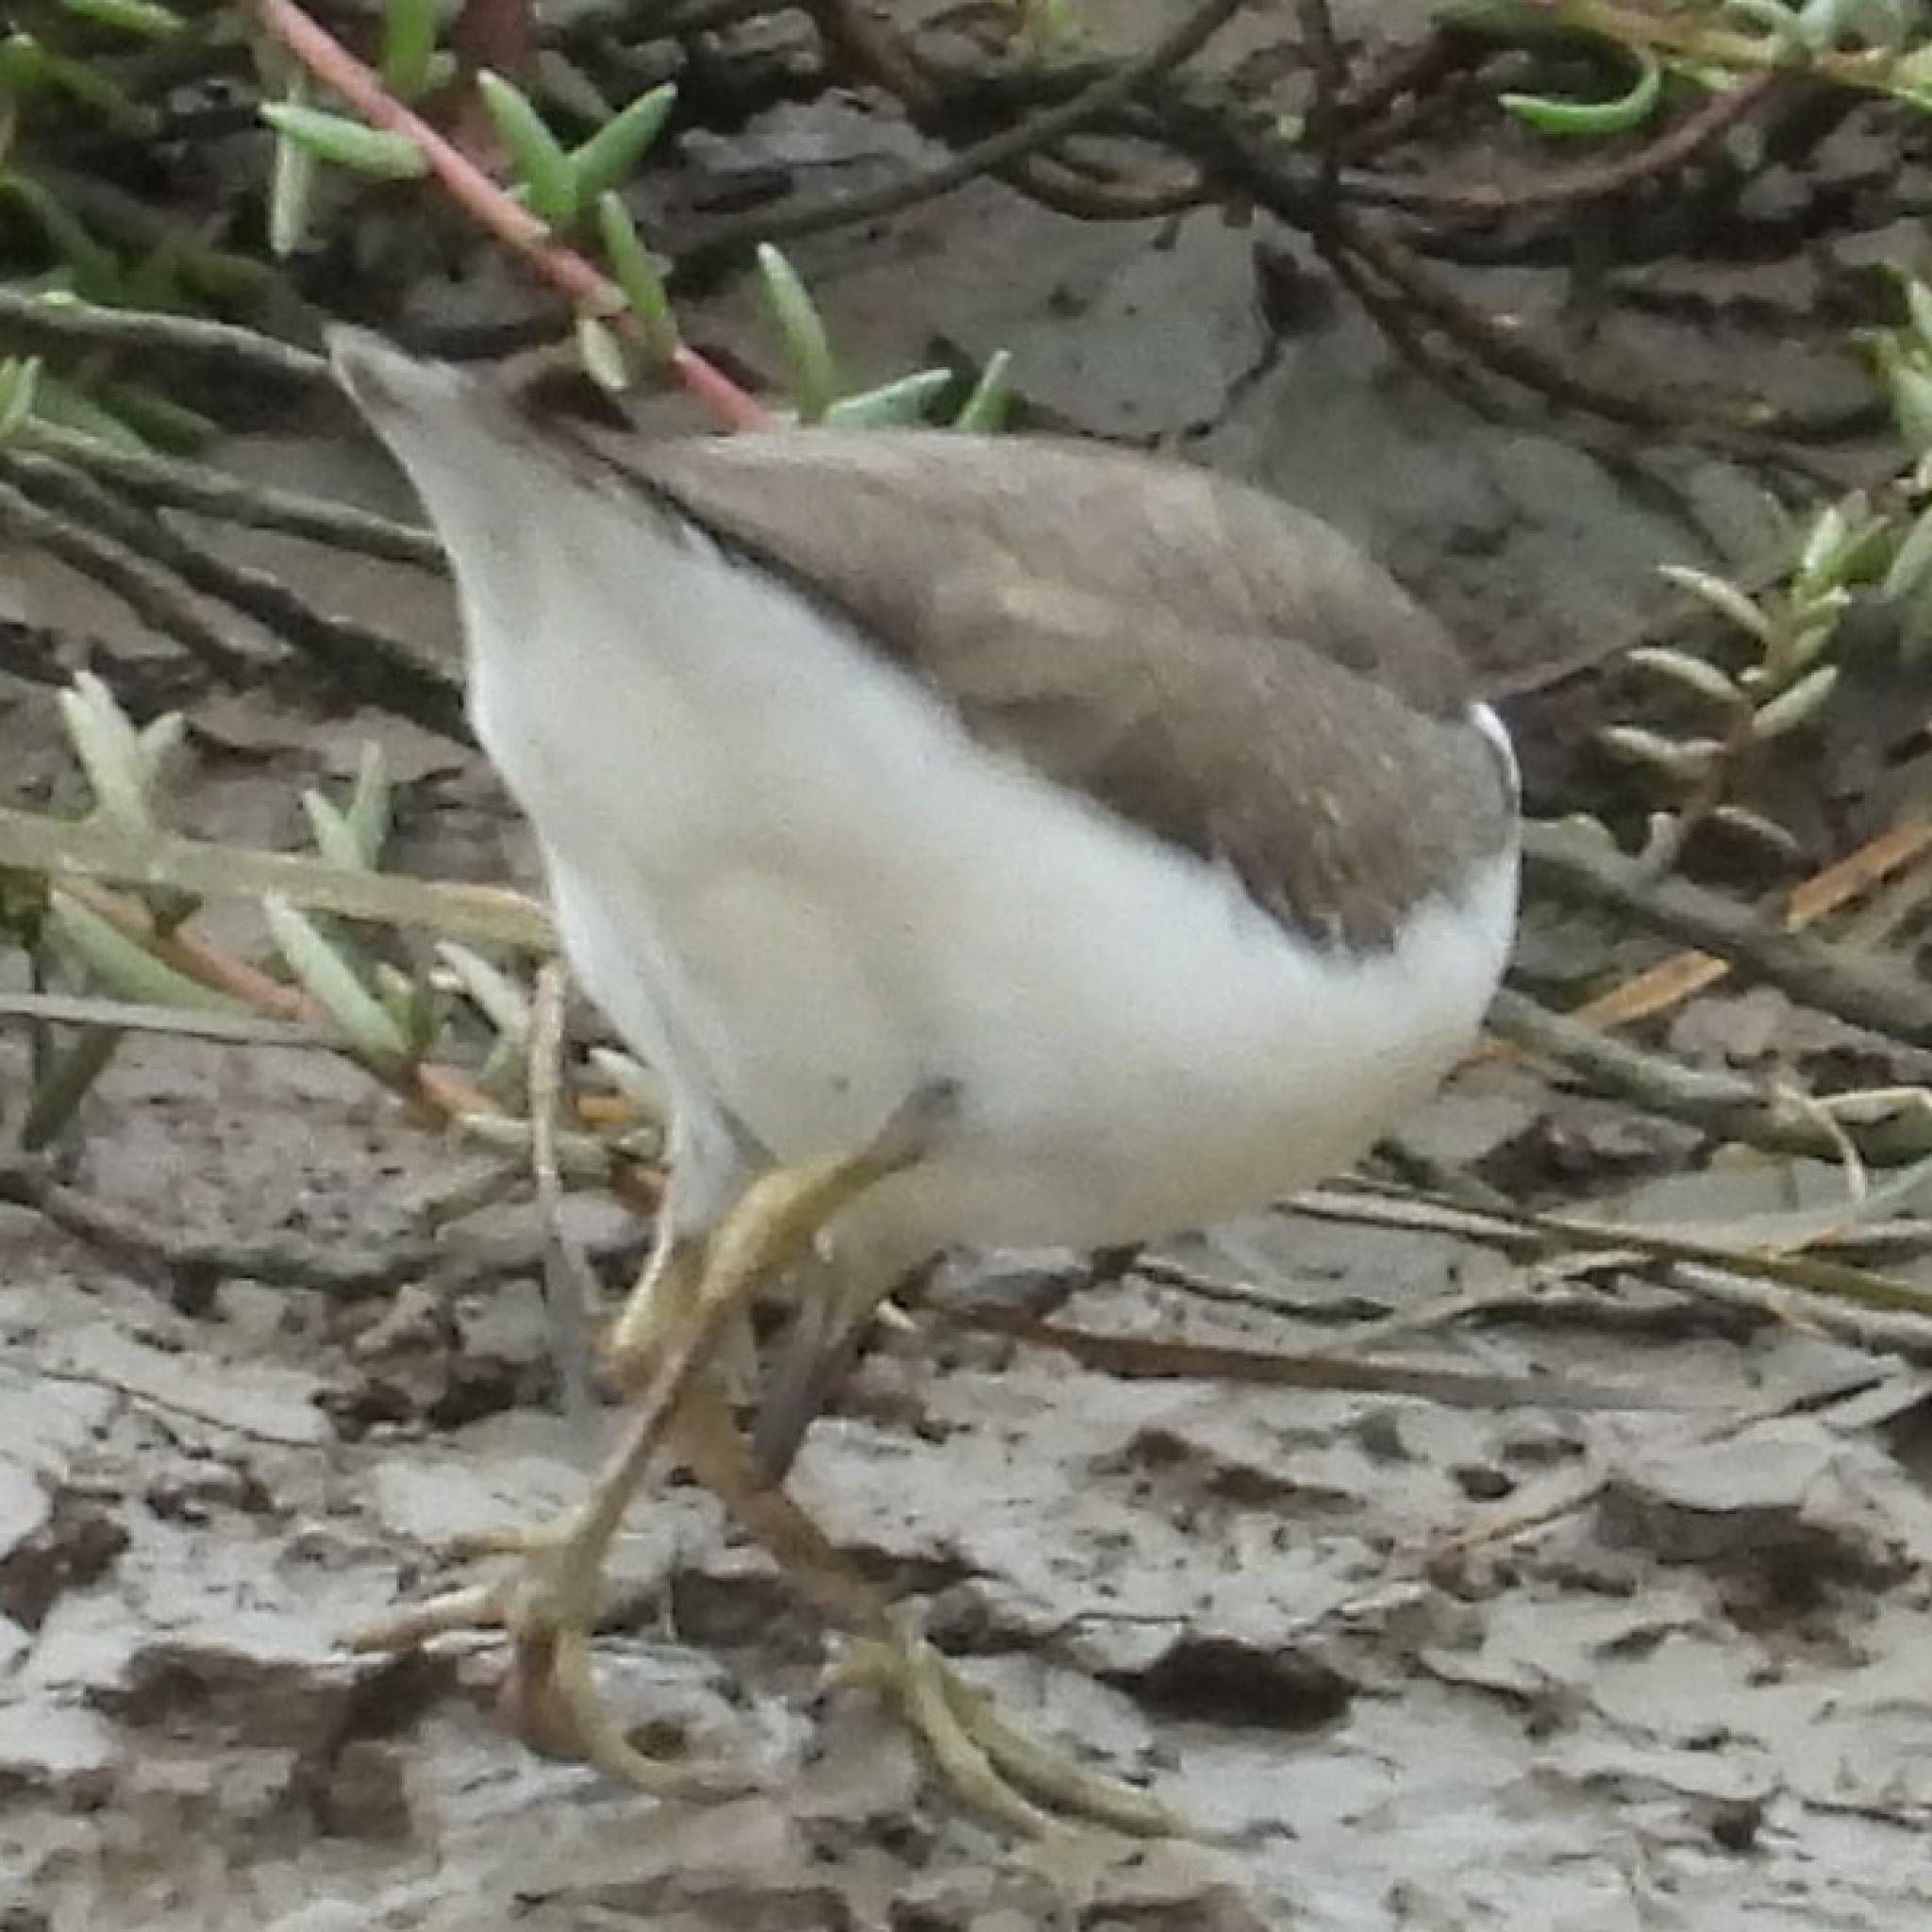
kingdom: Animalia
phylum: Chordata
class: Aves
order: Charadriiformes
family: Scolopacidae
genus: Actitis
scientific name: Actitis hypoleucos
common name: Common sandpiper
